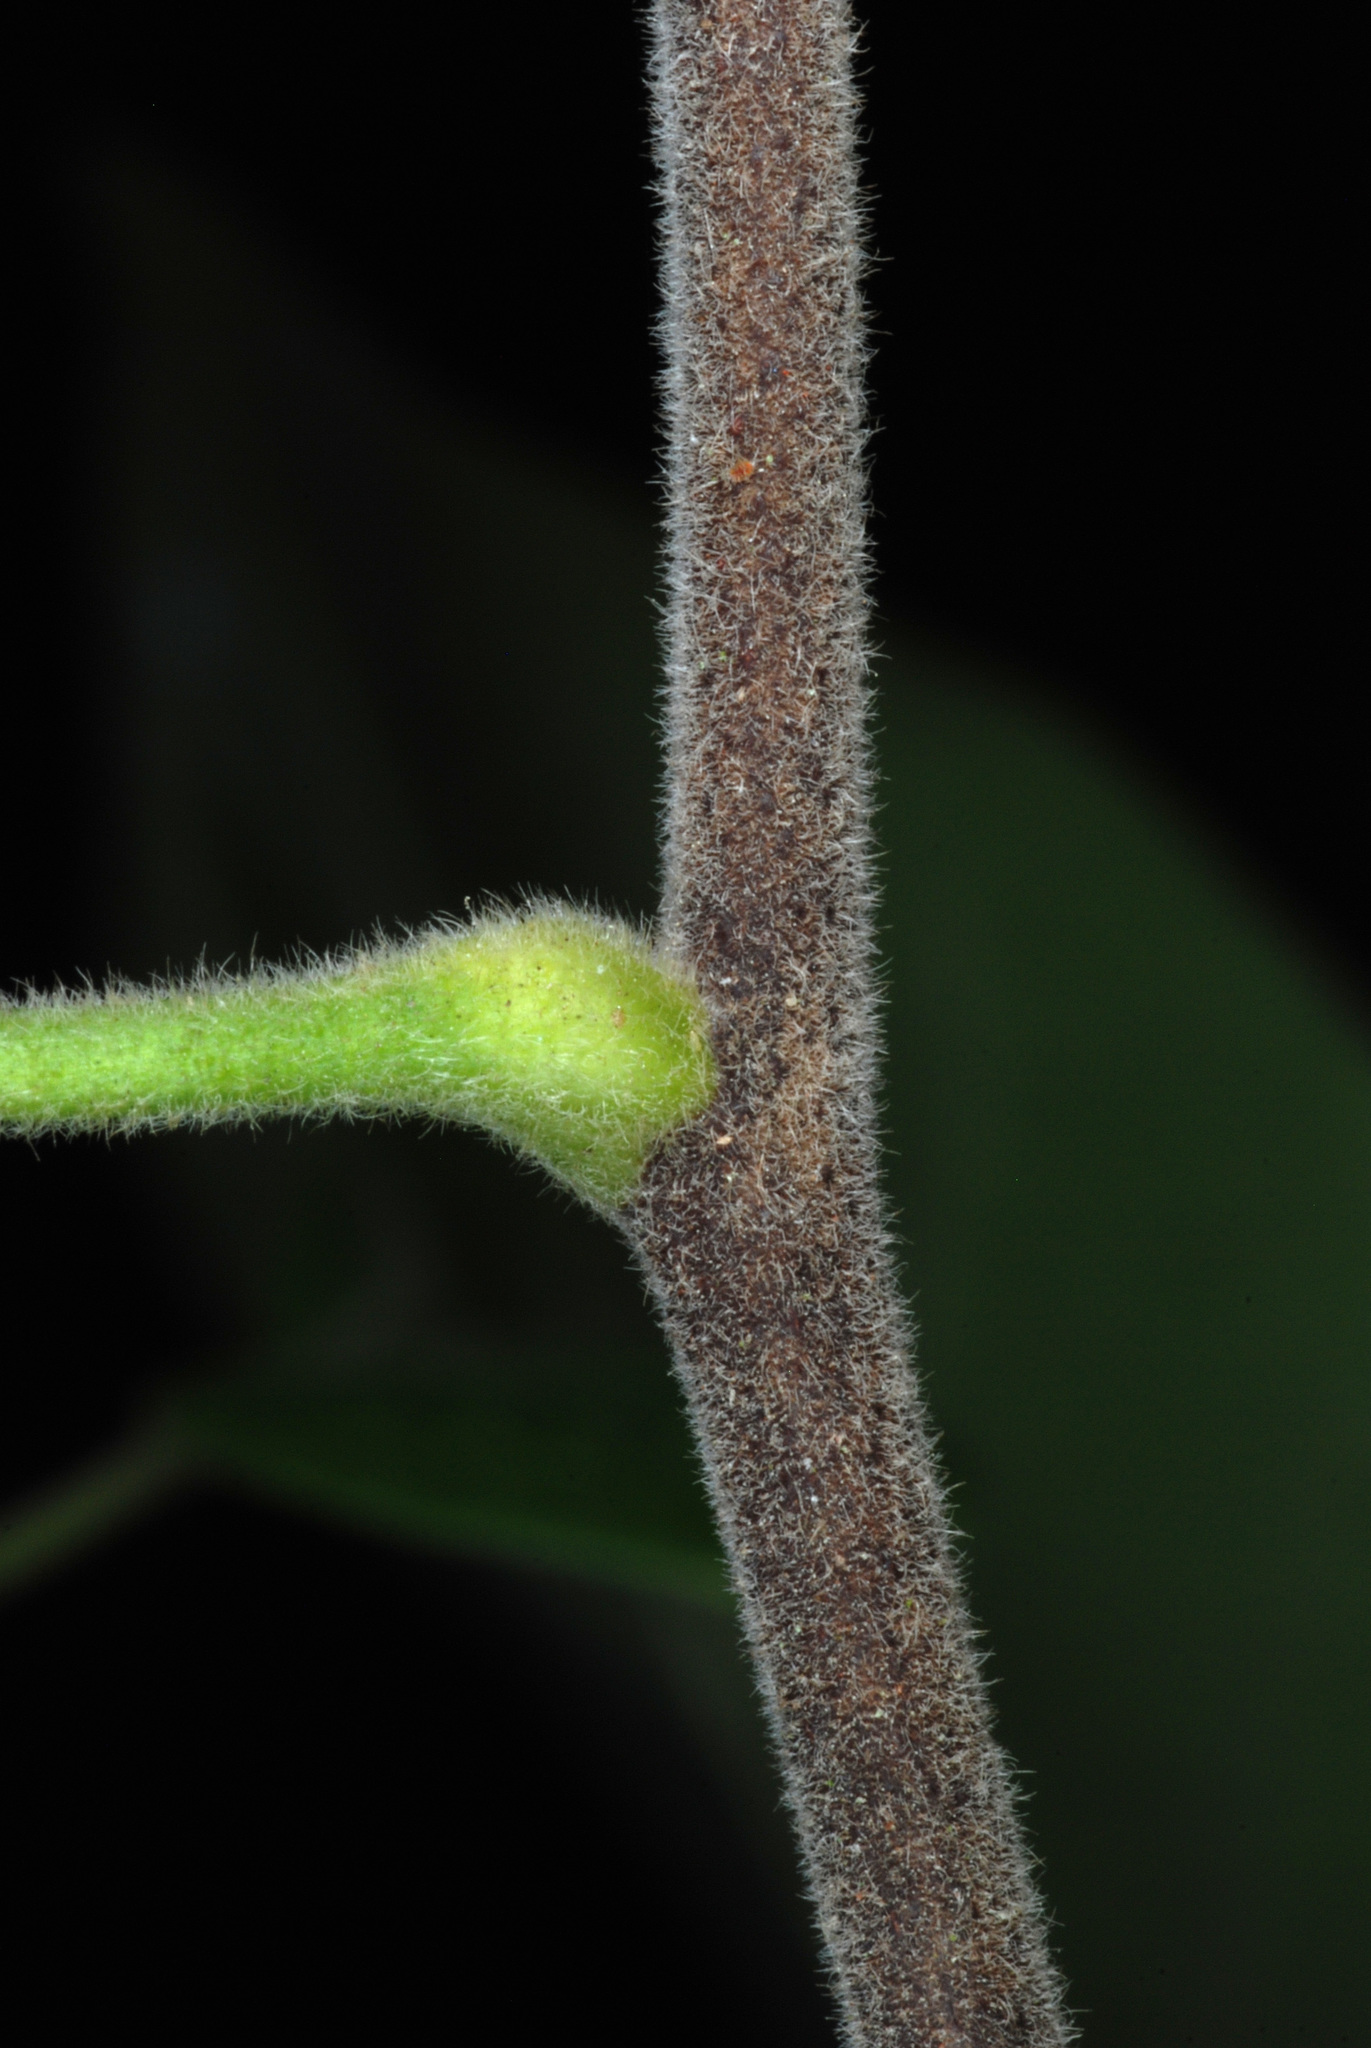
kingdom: Plantae
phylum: Tracheophyta
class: Magnoliopsida
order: Sapindales
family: Rutaceae
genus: Ptelea
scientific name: Ptelea trifoliata
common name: Common hop-tree
